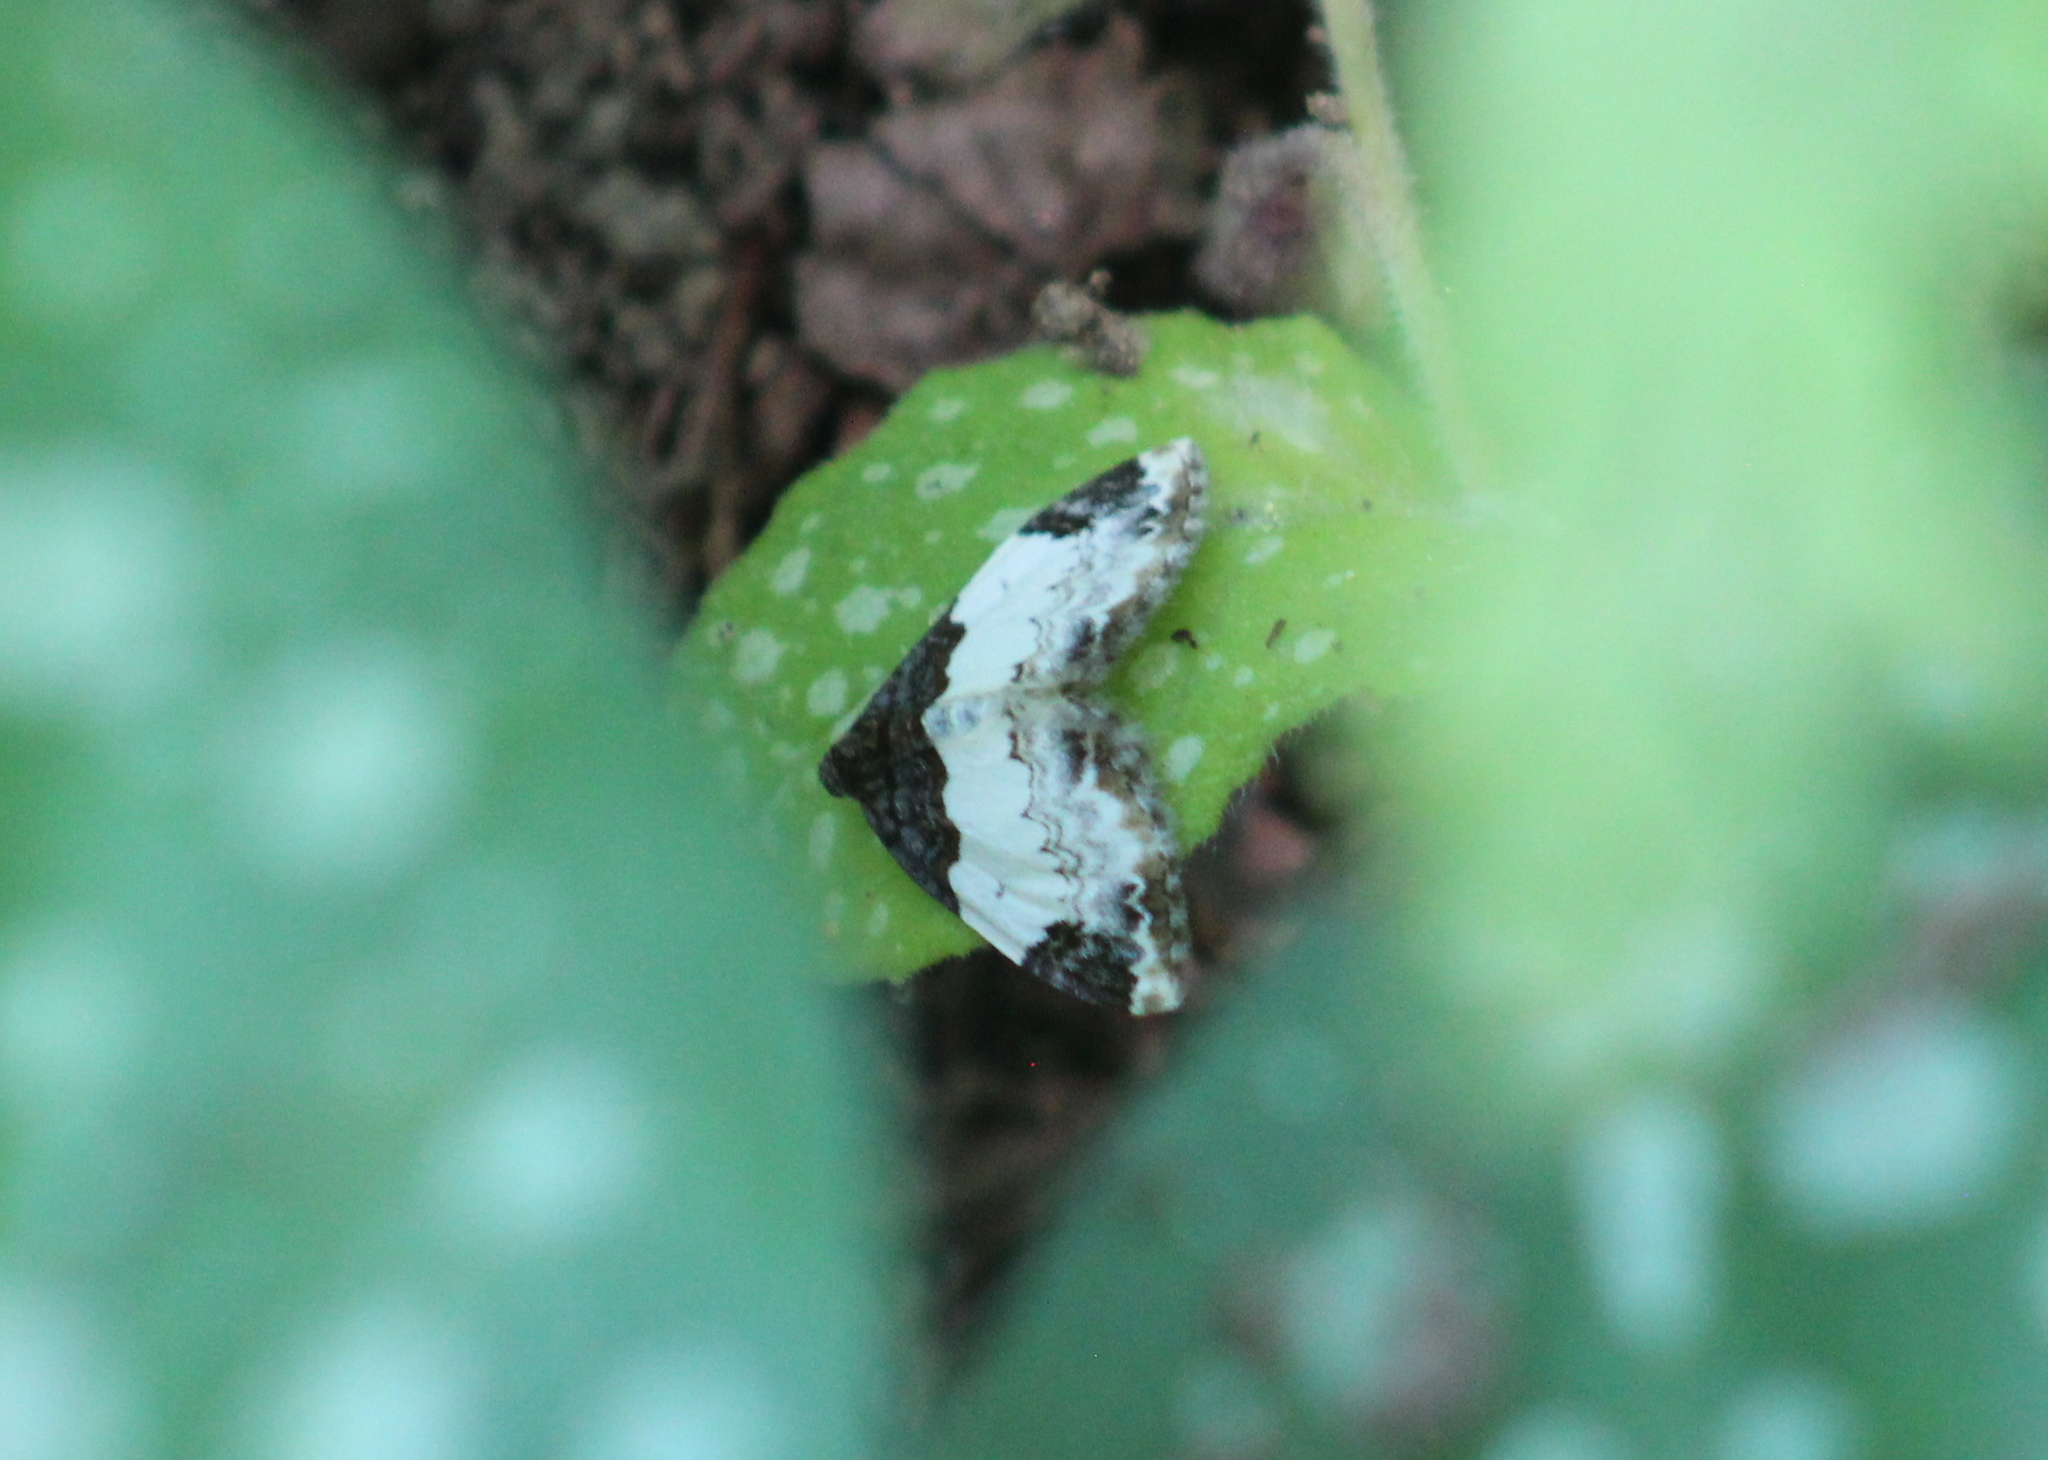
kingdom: Animalia
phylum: Arthropoda
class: Insecta
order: Lepidoptera
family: Geometridae
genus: Mesoleuca
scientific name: Mesoleuca ruficillata
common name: White-ribboned carpet moth
